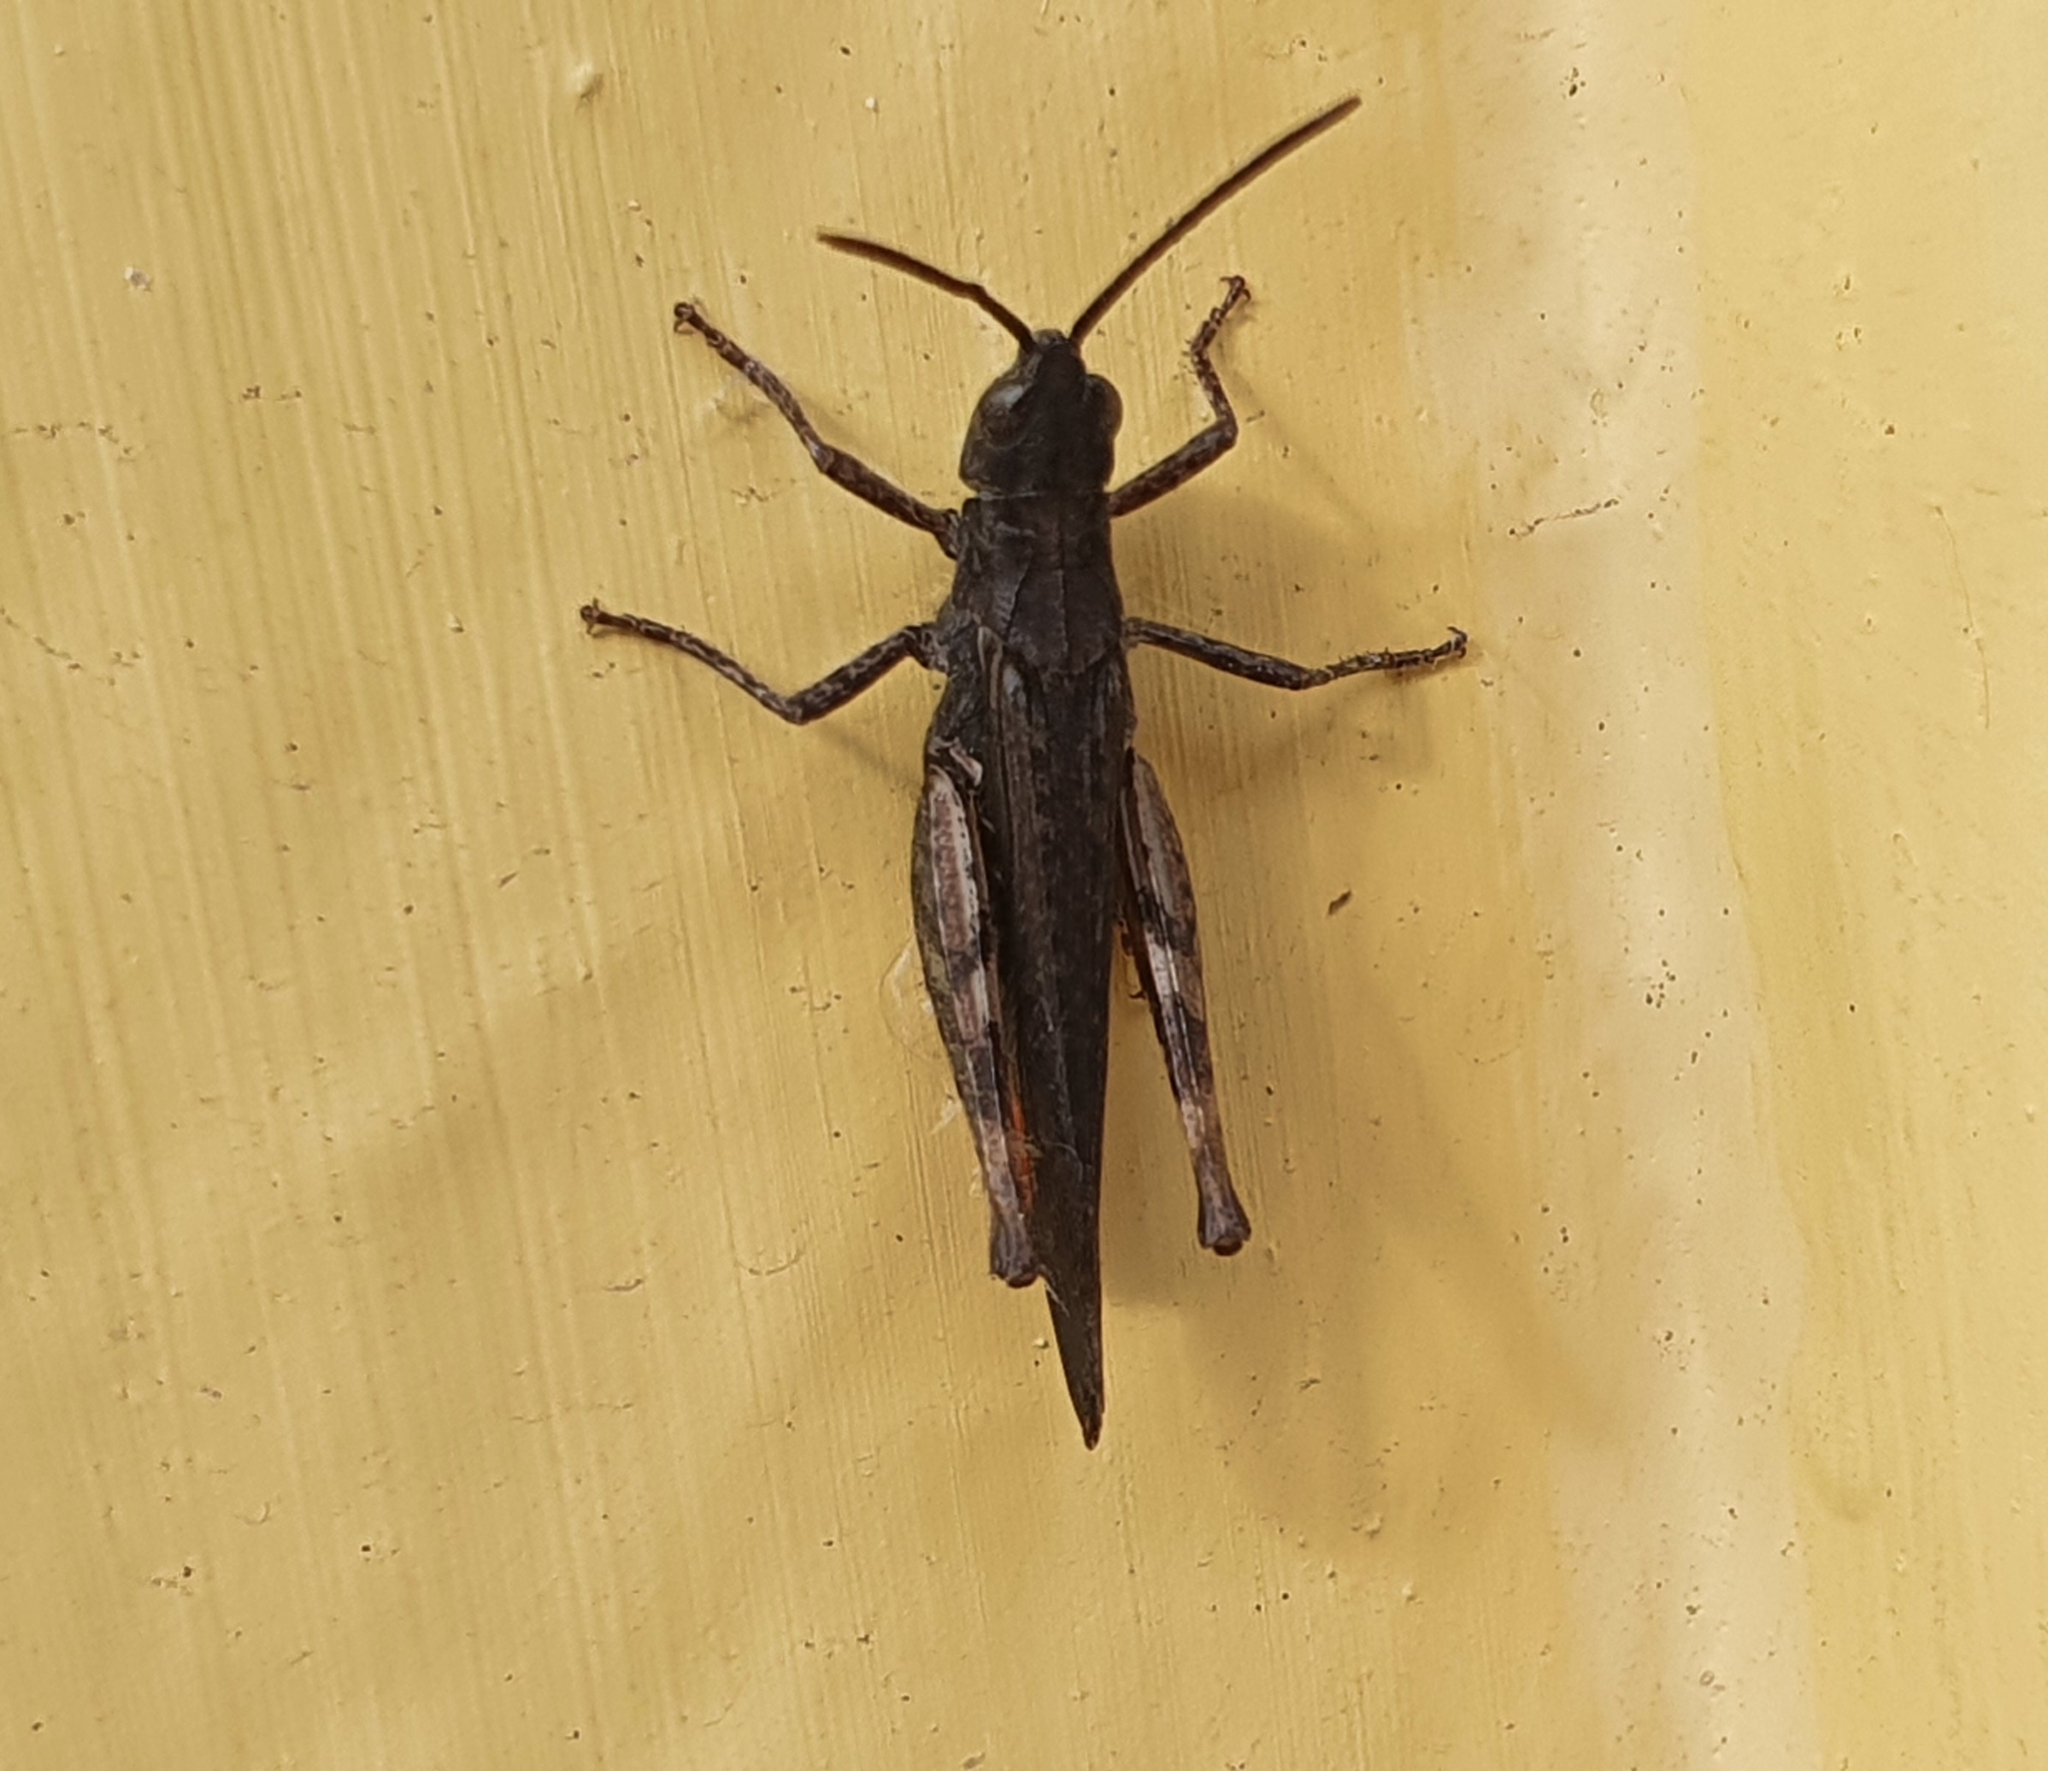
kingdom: Animalia
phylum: Arthropoda
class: Insecta
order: Orthoptera
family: Acrididae
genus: Chorthippus
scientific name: Chorthippus brunneus
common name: Field grasshopper
